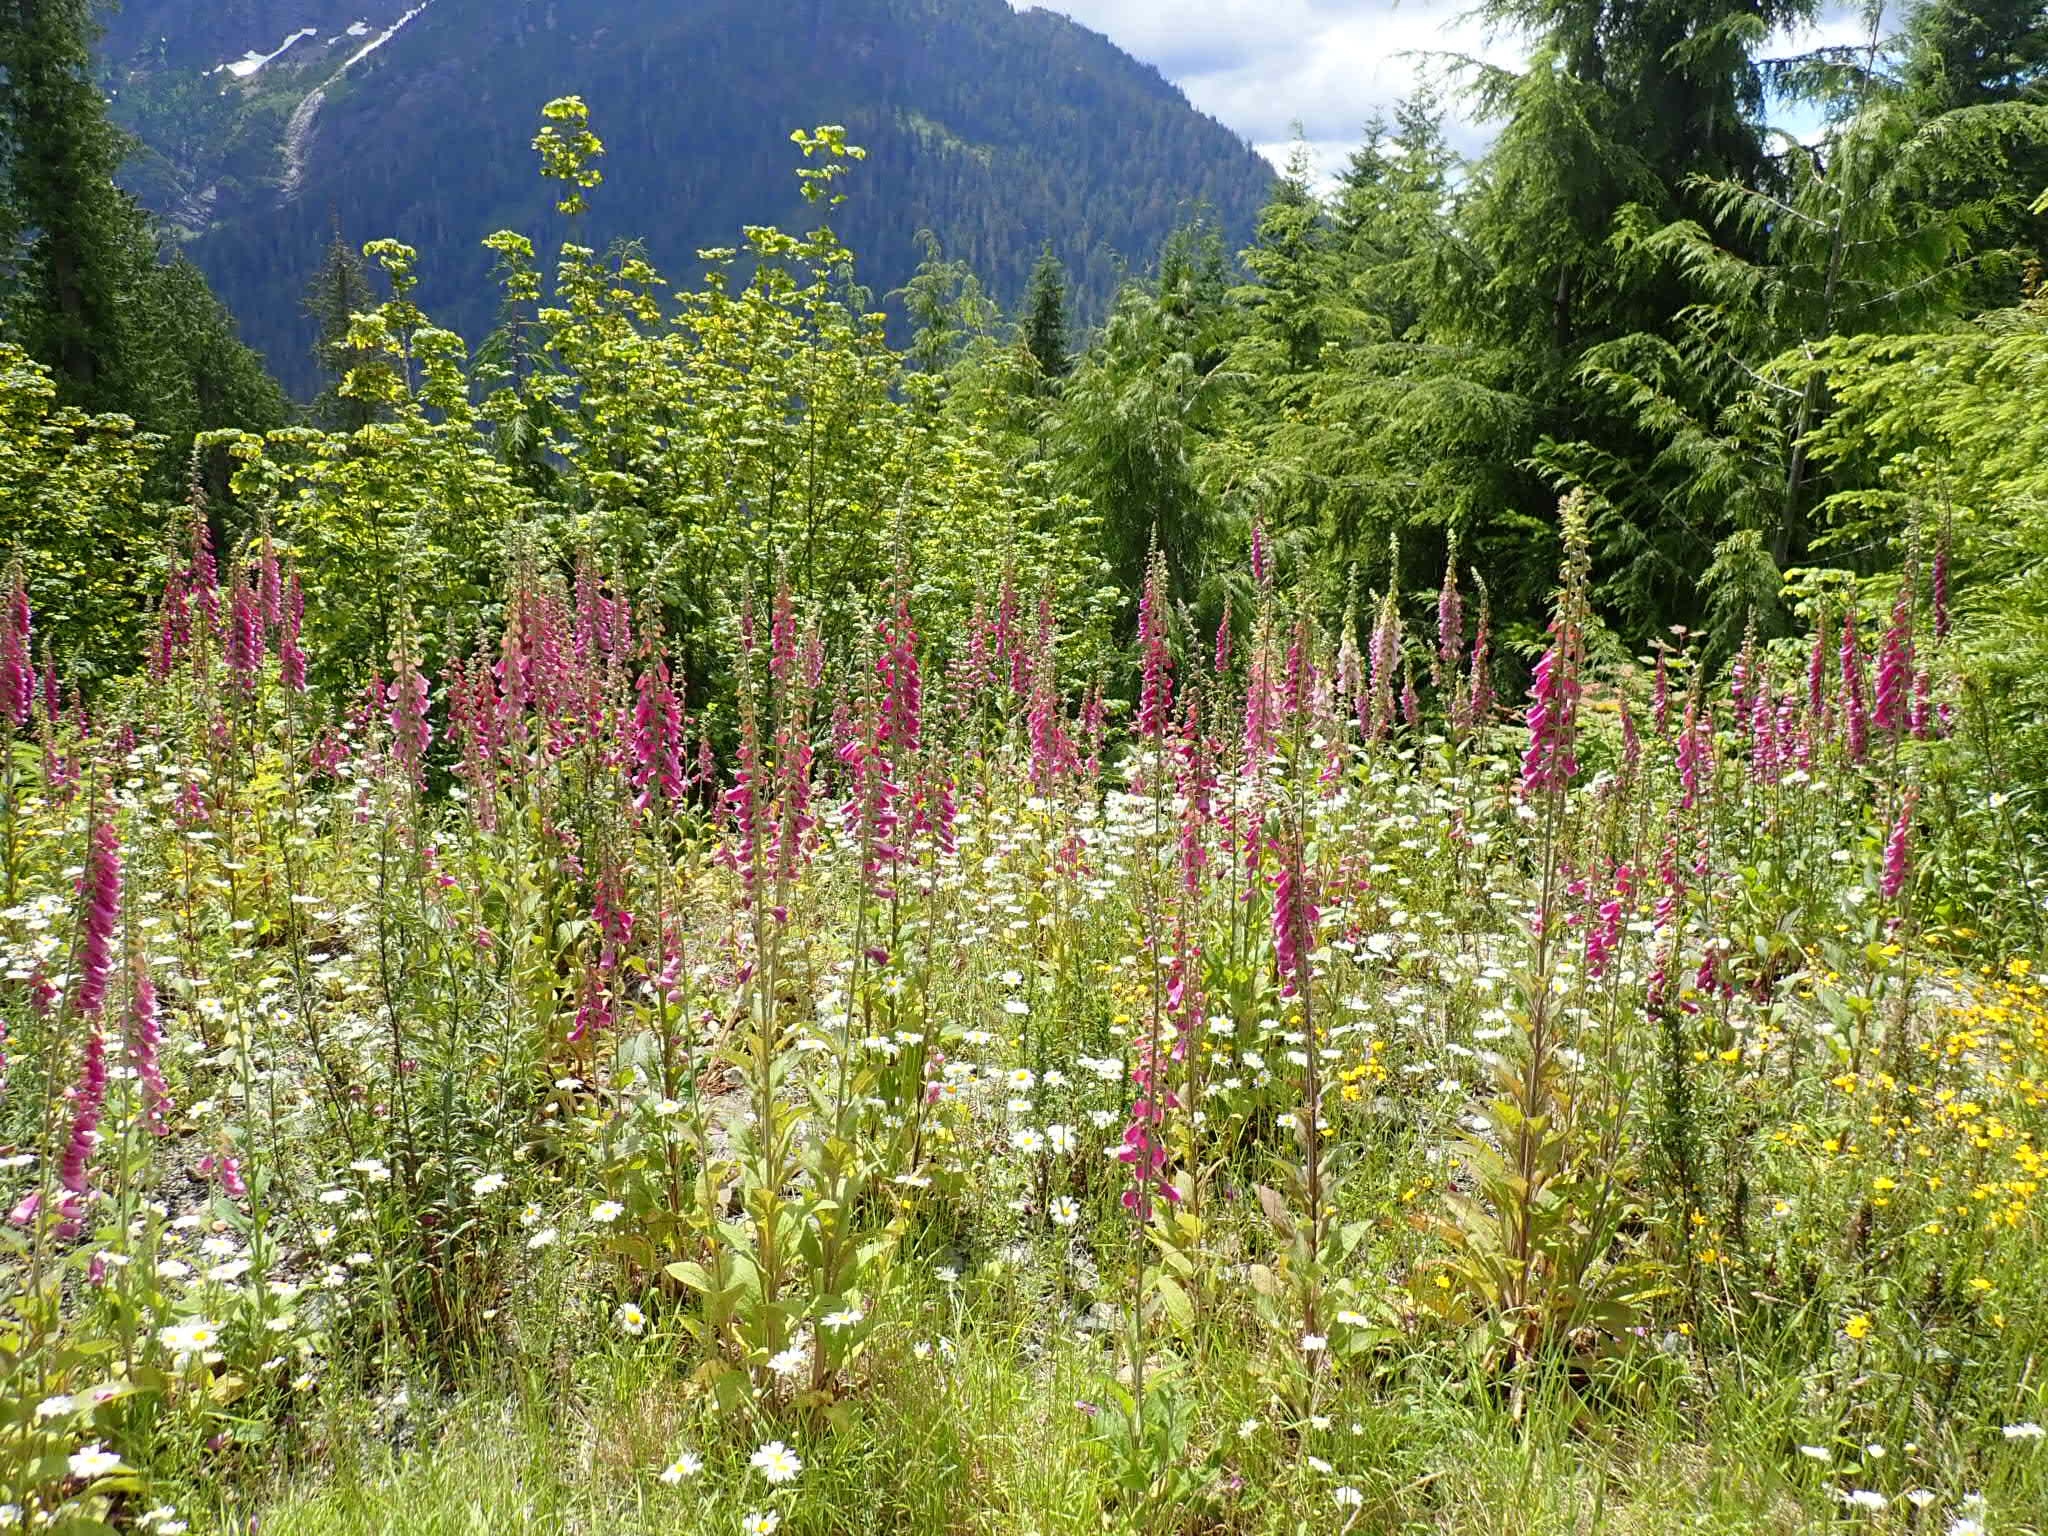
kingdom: Plantae
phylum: Tracheophyta
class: Magnoliopsida
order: Lamiales
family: Plantaginaceae
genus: Digitalis
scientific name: Digitalis purpurea
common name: Foxglove
